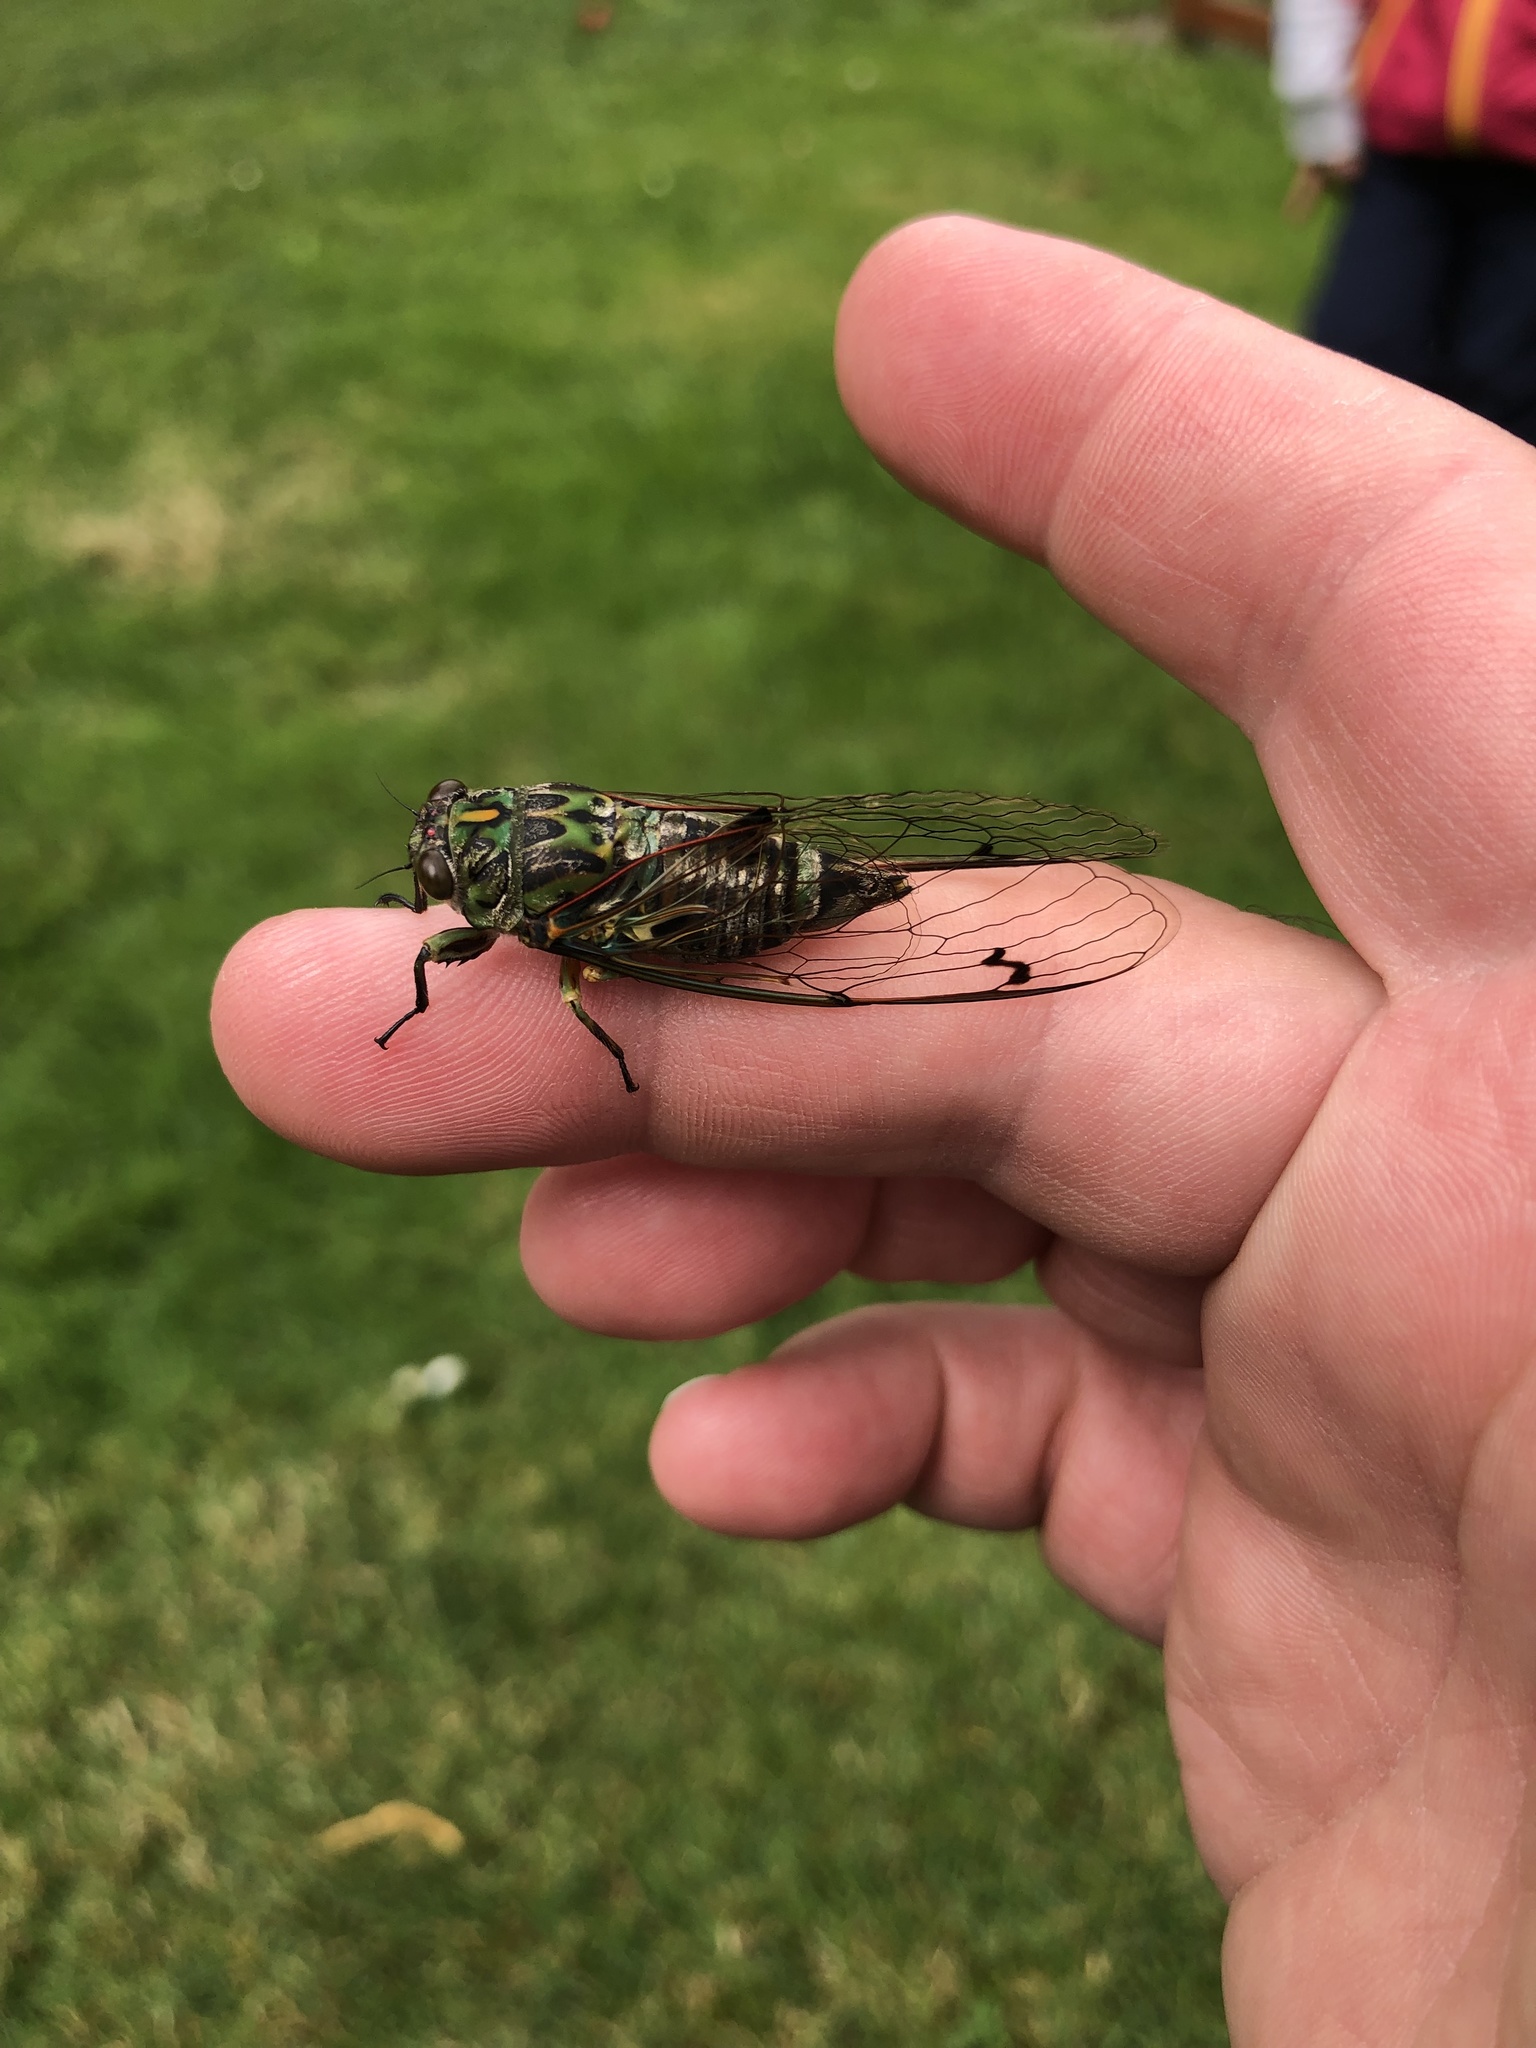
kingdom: Animalia
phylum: Arthropoda
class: Insecta
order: Hemiptera
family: Cicadidae
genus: Amphipsalta
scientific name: Amphipsalta zelandica
